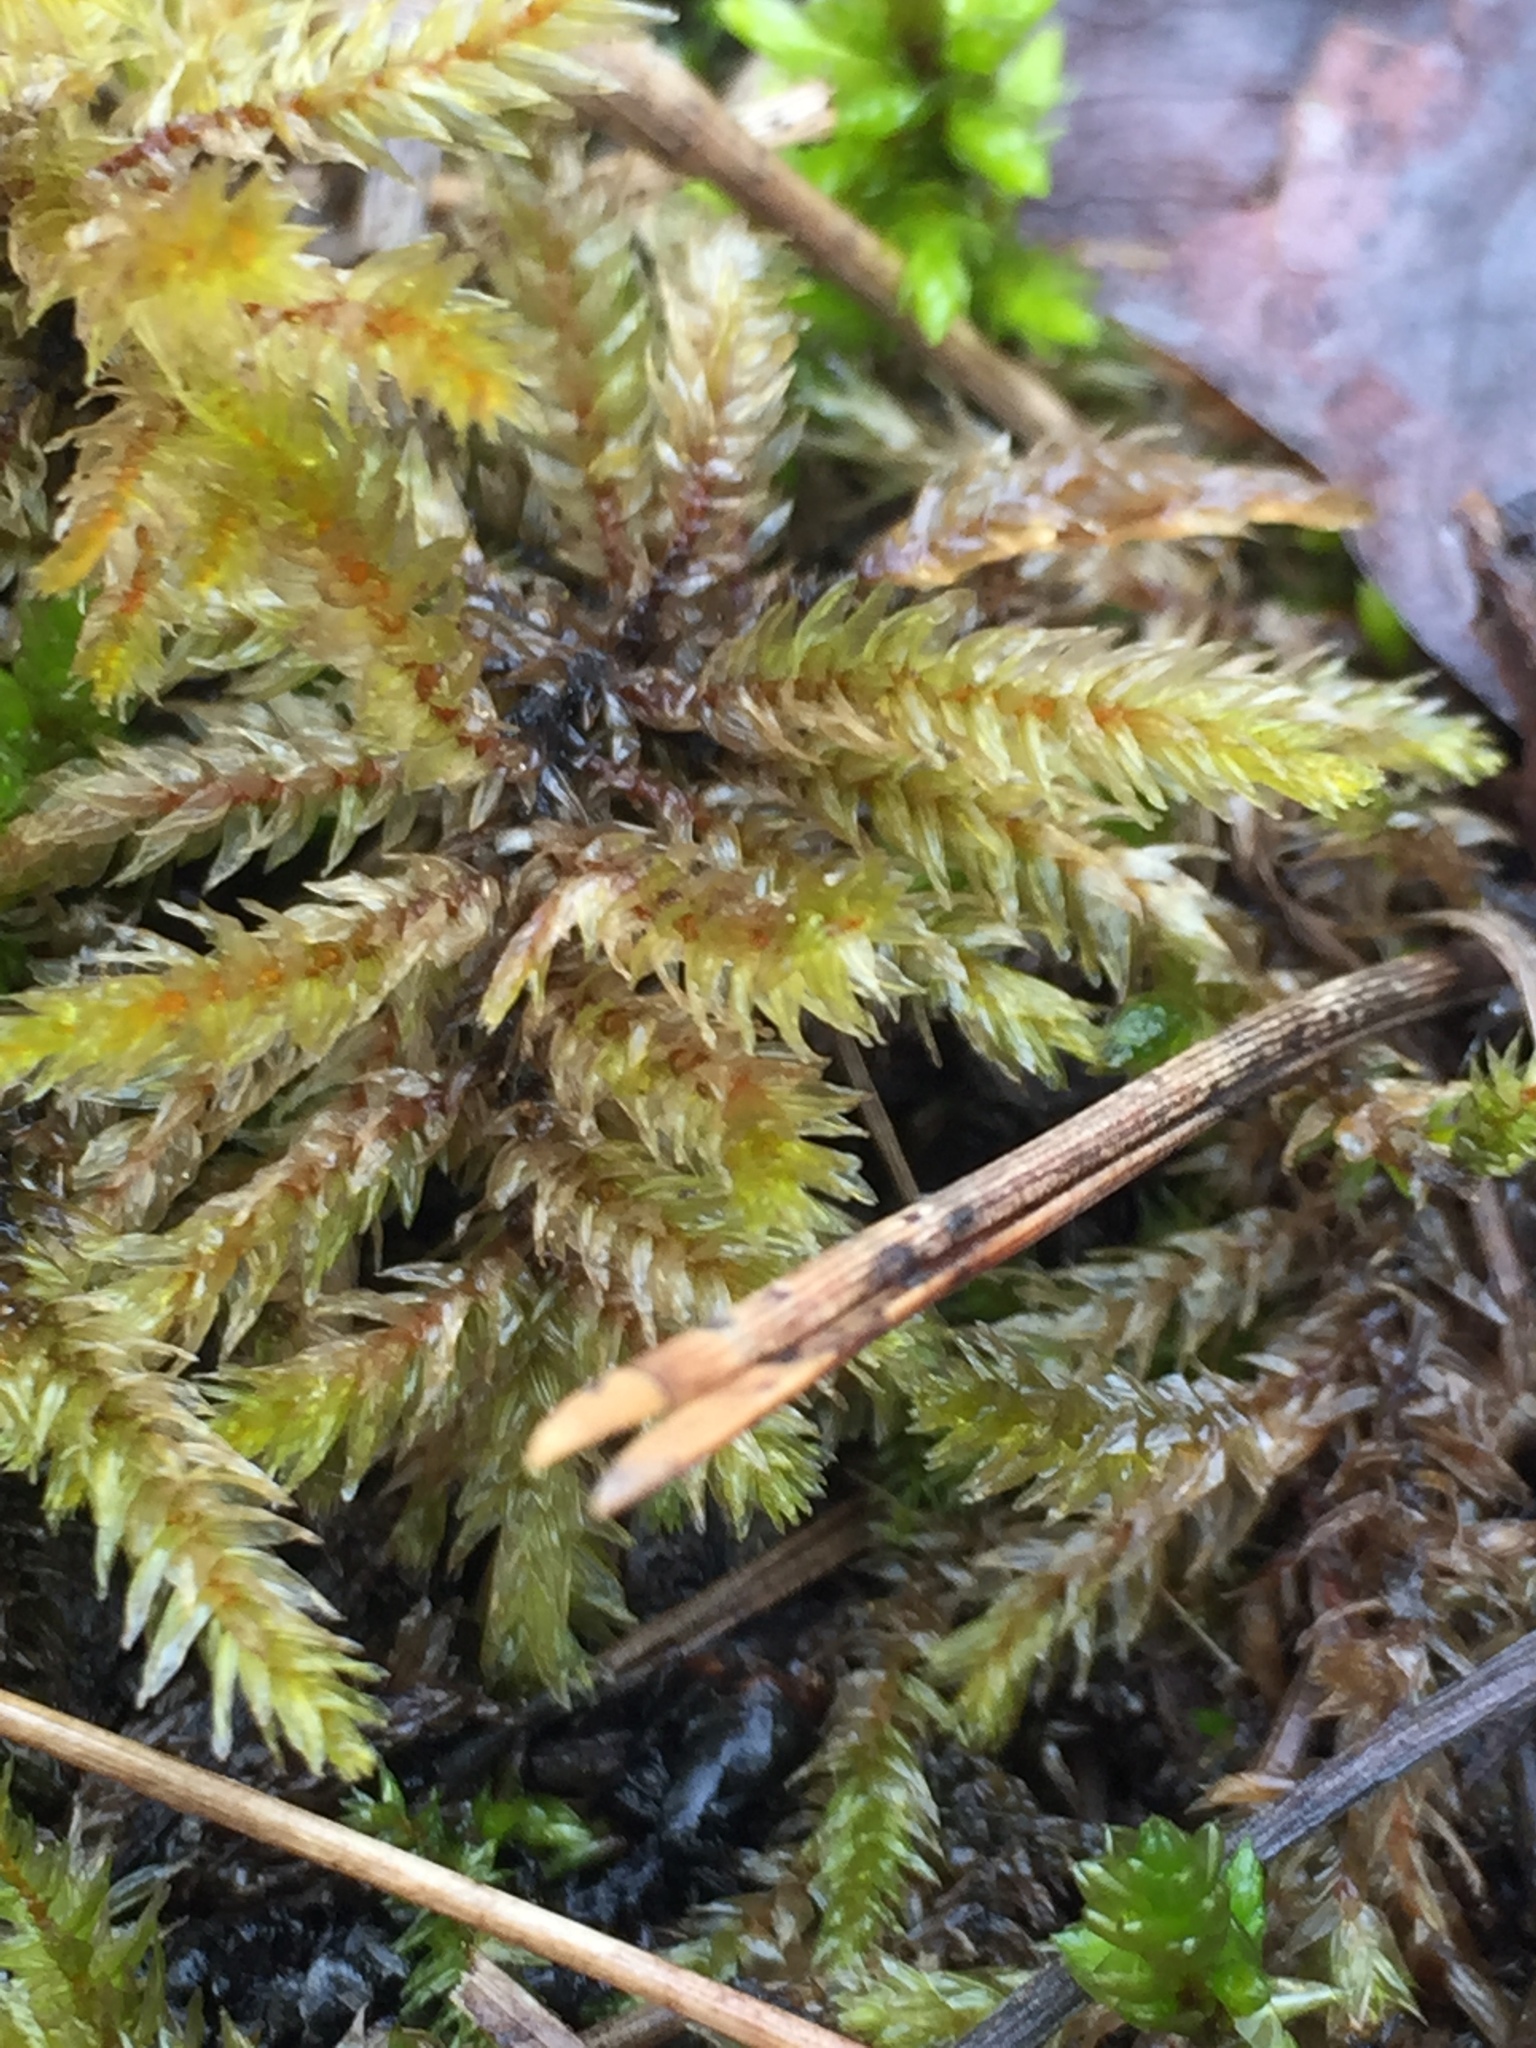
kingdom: Plantae
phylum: Bryophyta
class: Bryopsida
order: Hypnales
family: Climaciaceae
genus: Climacium
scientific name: Climacium dendroides
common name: Northern tree moss
